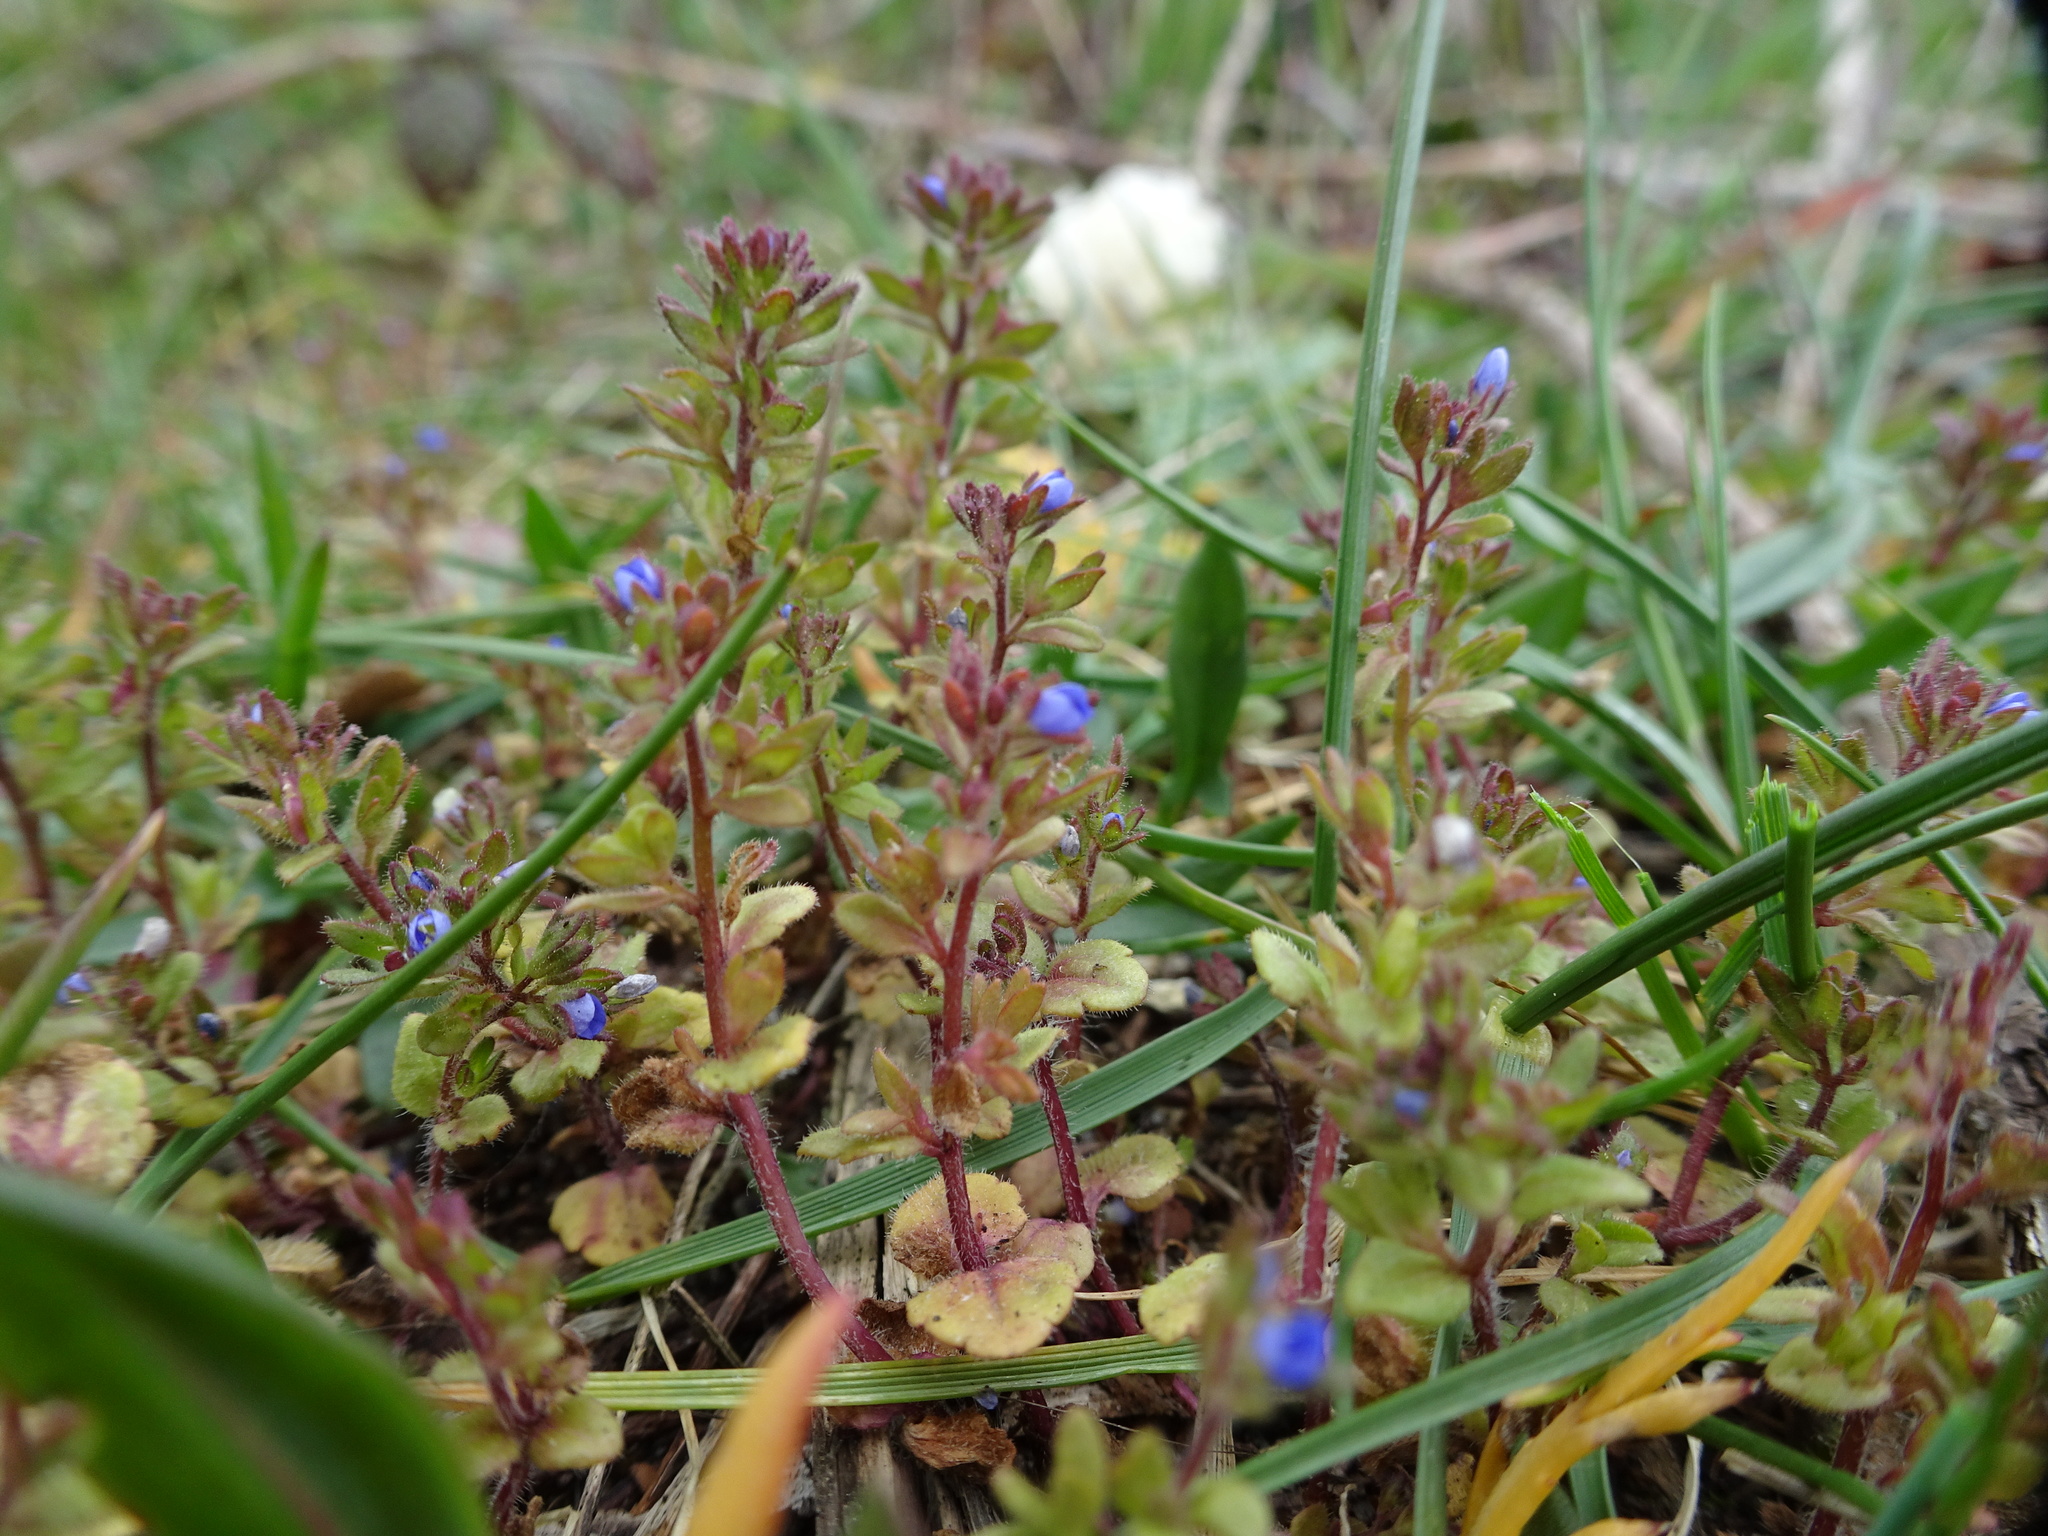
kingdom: Plantae
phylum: Tracheophyta
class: Magnoliopsida
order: Lamiales
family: Plantaginaceae
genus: Veronica
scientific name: Veronica arvensis
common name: Corn speedwell
